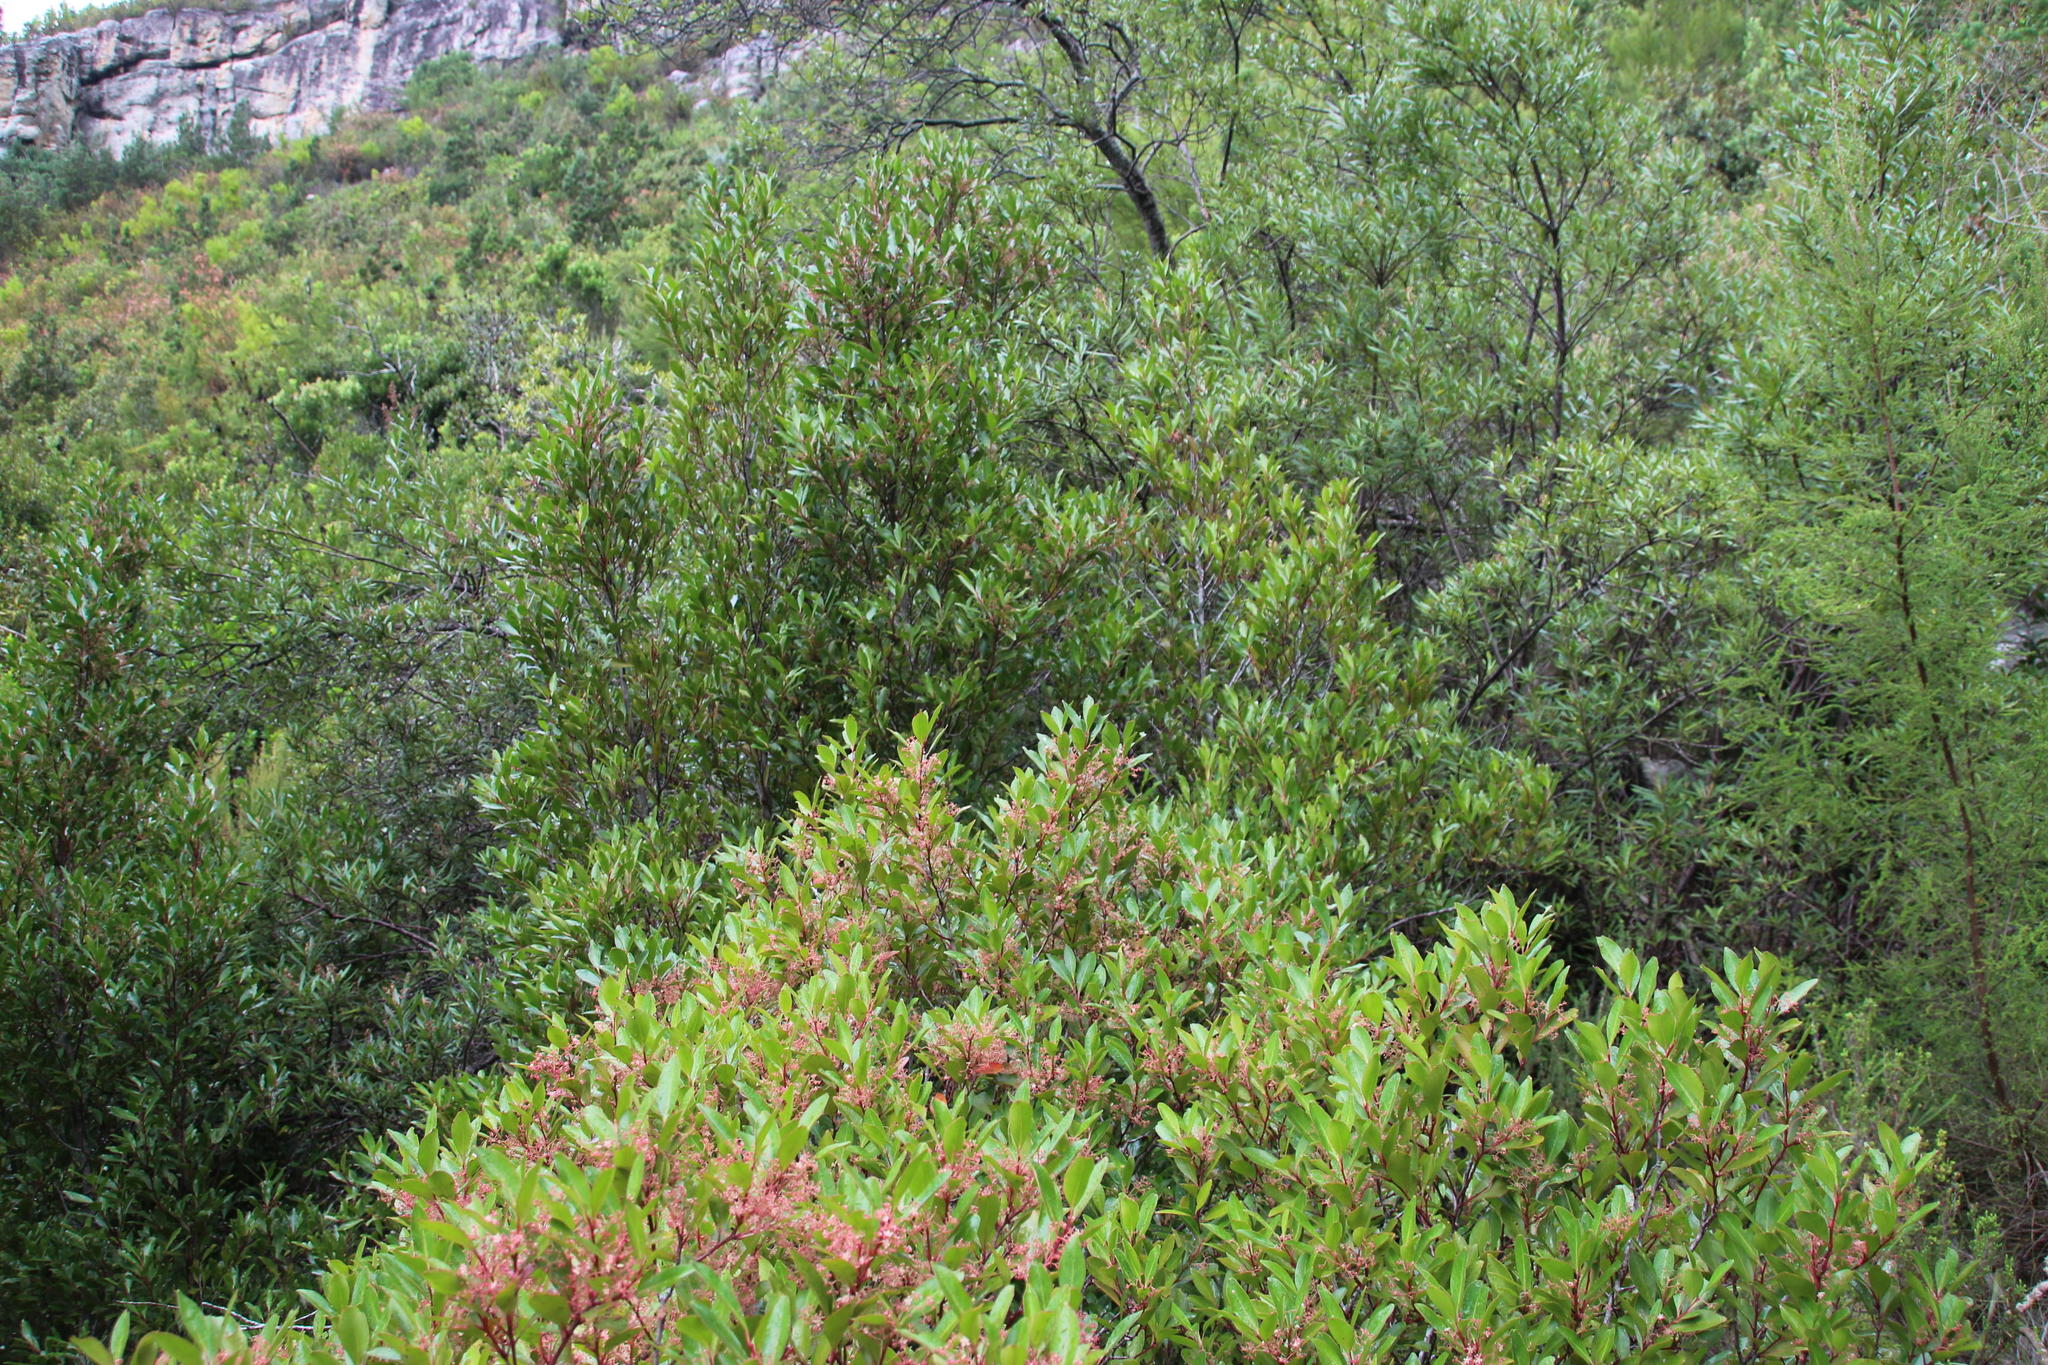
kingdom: Plantae
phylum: Tracheophyta
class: Magnoliopsida
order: Celastrales
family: Celastraceae
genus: Pterocelastrus
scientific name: Pterocelastrus rostratus
